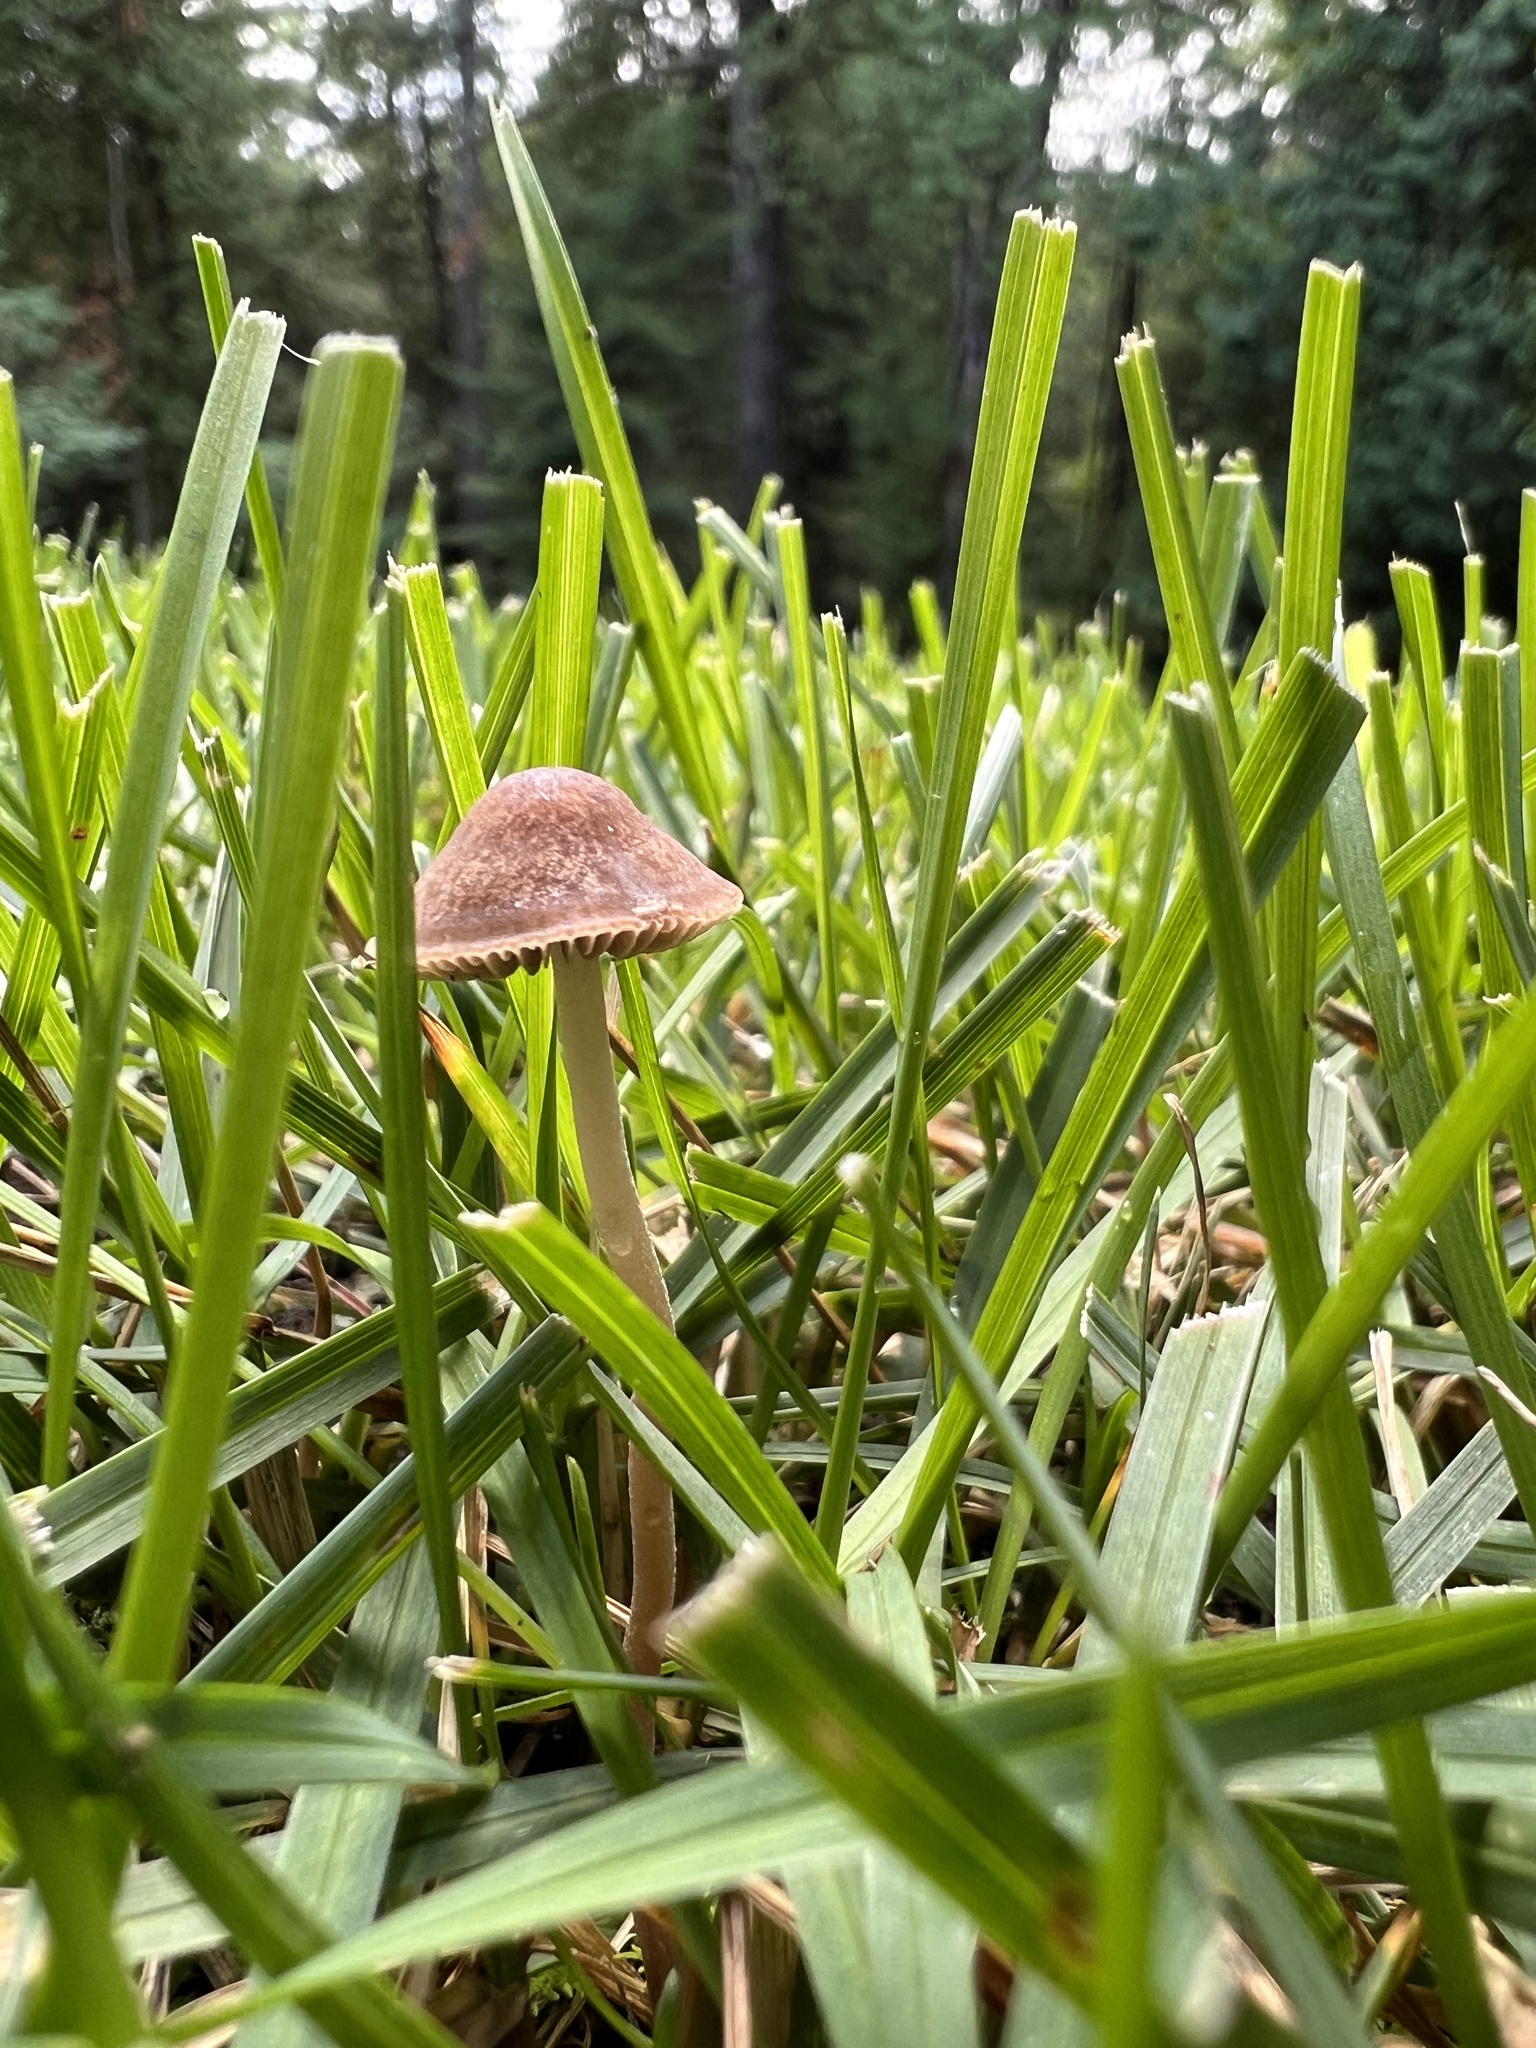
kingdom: Fungi
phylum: Basidiomycota
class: Agaricomycetes
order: Agaricales
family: Bolbitiaceae
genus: Panaeolina
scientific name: Panaeolina foenisecii
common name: Brown hay cap
